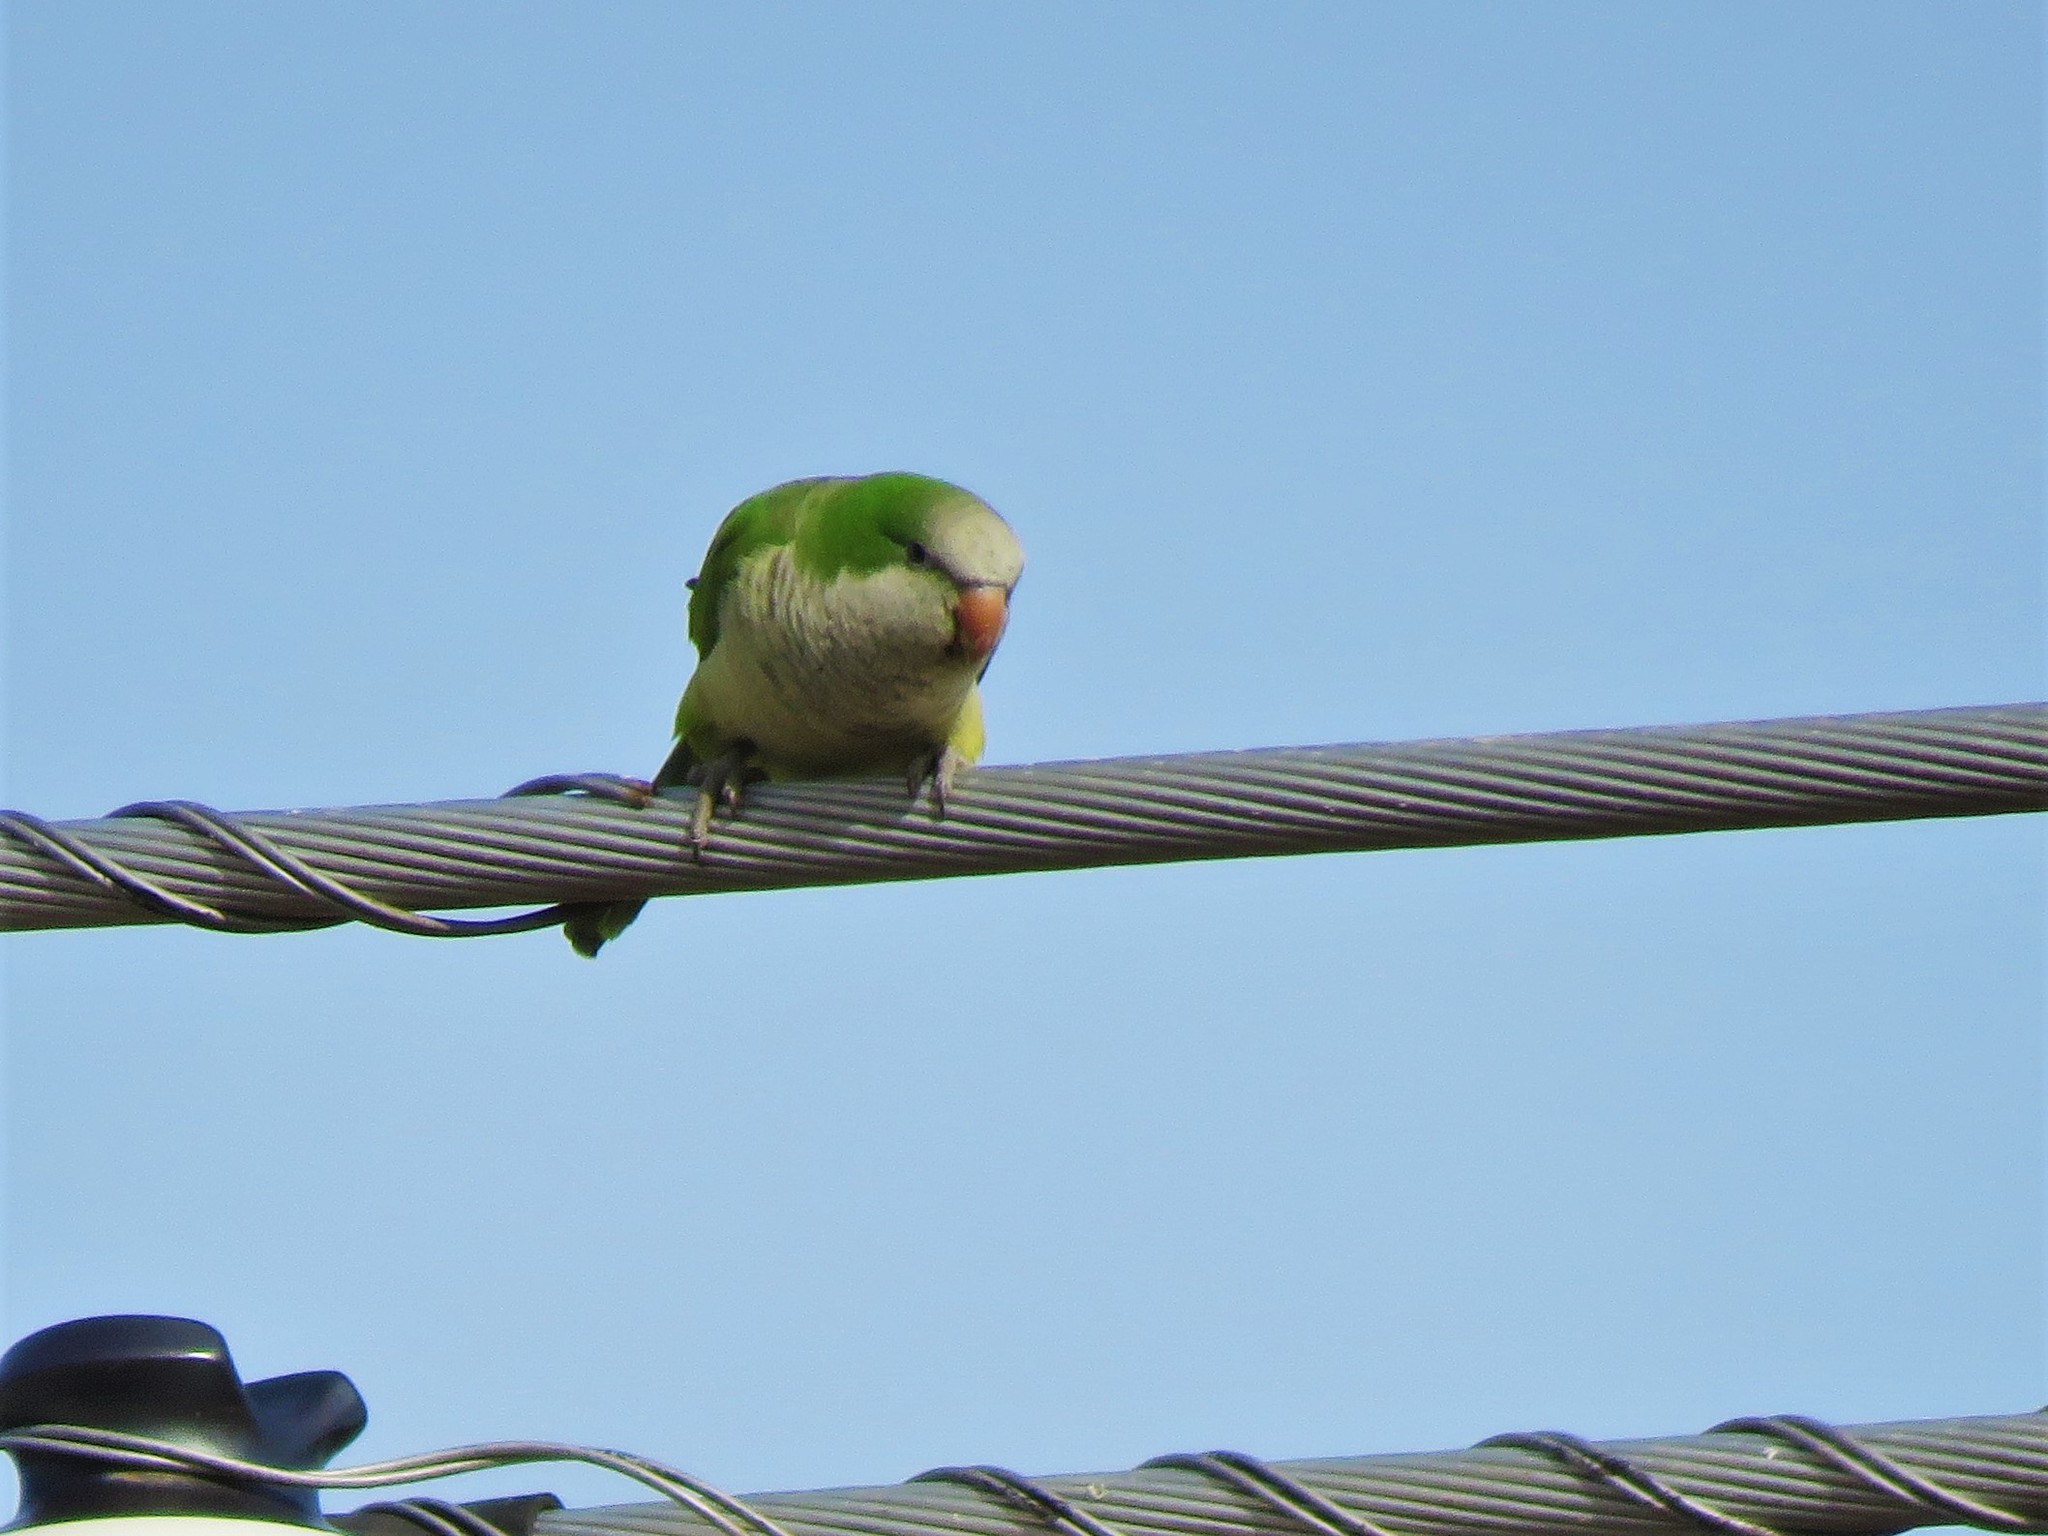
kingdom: Animalia
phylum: Chordata
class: Aves
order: Psittaciformes
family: Psittacidae
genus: Myiopsitta
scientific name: Myiopsitta monachus
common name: Monk parakeet
